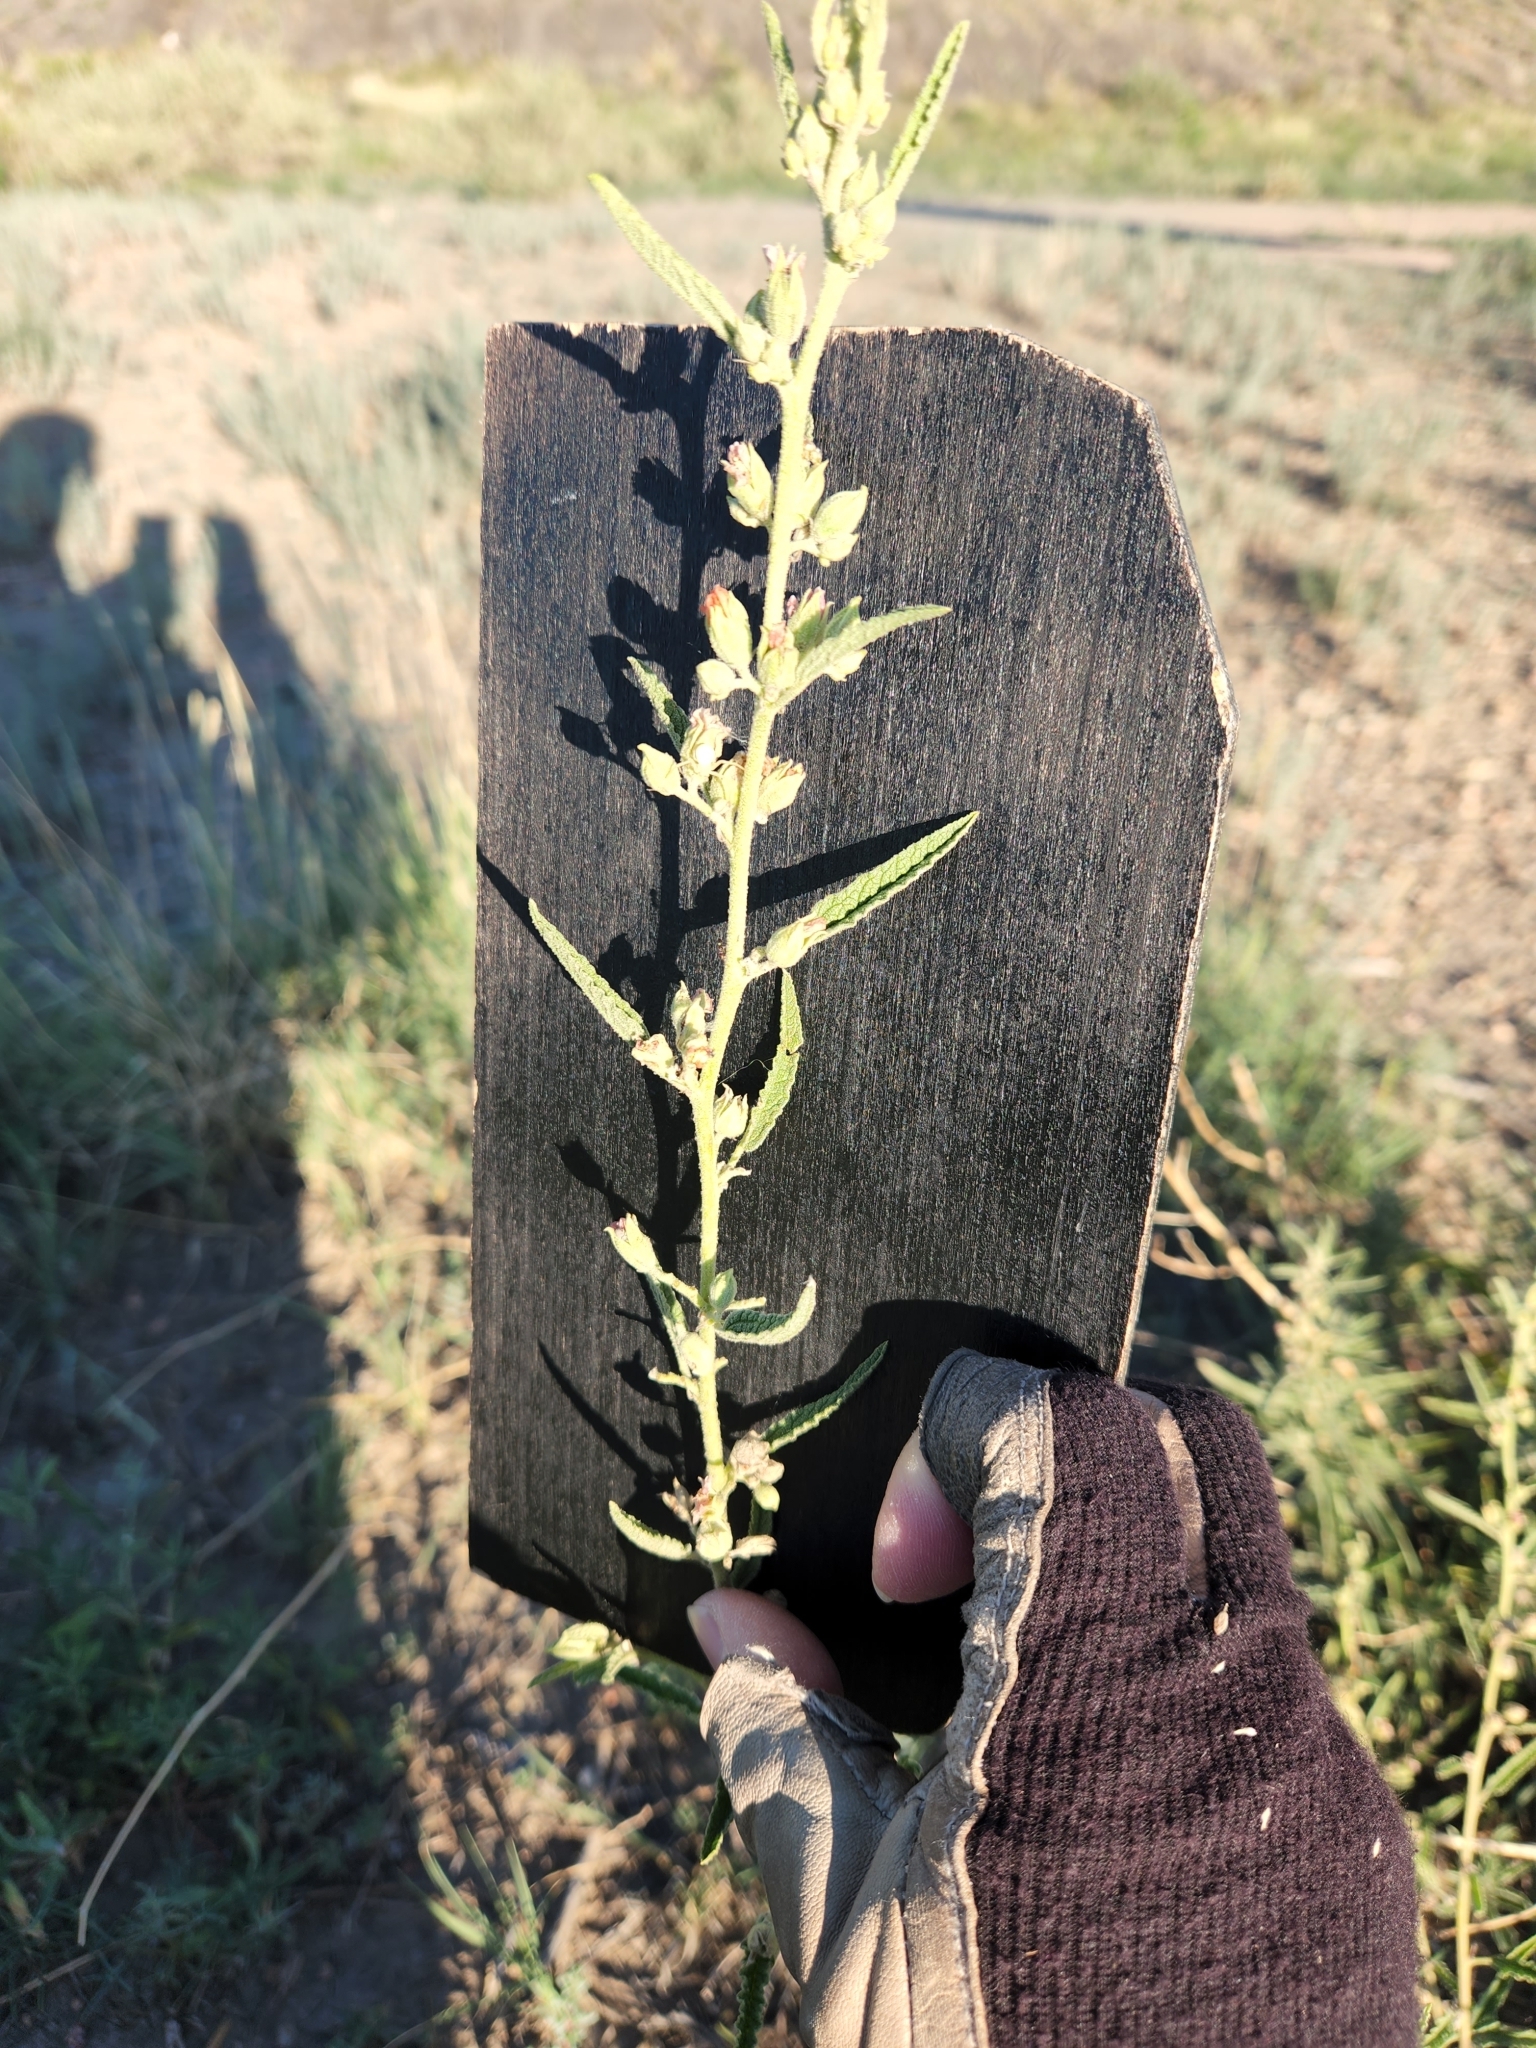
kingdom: Plantae
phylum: Tracheophyta
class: Magnoliopsida
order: Malvales
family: Malvaceae
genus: Sphaeralcea
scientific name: Sphaeralcea angustifolia
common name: Copper globe-mallow
